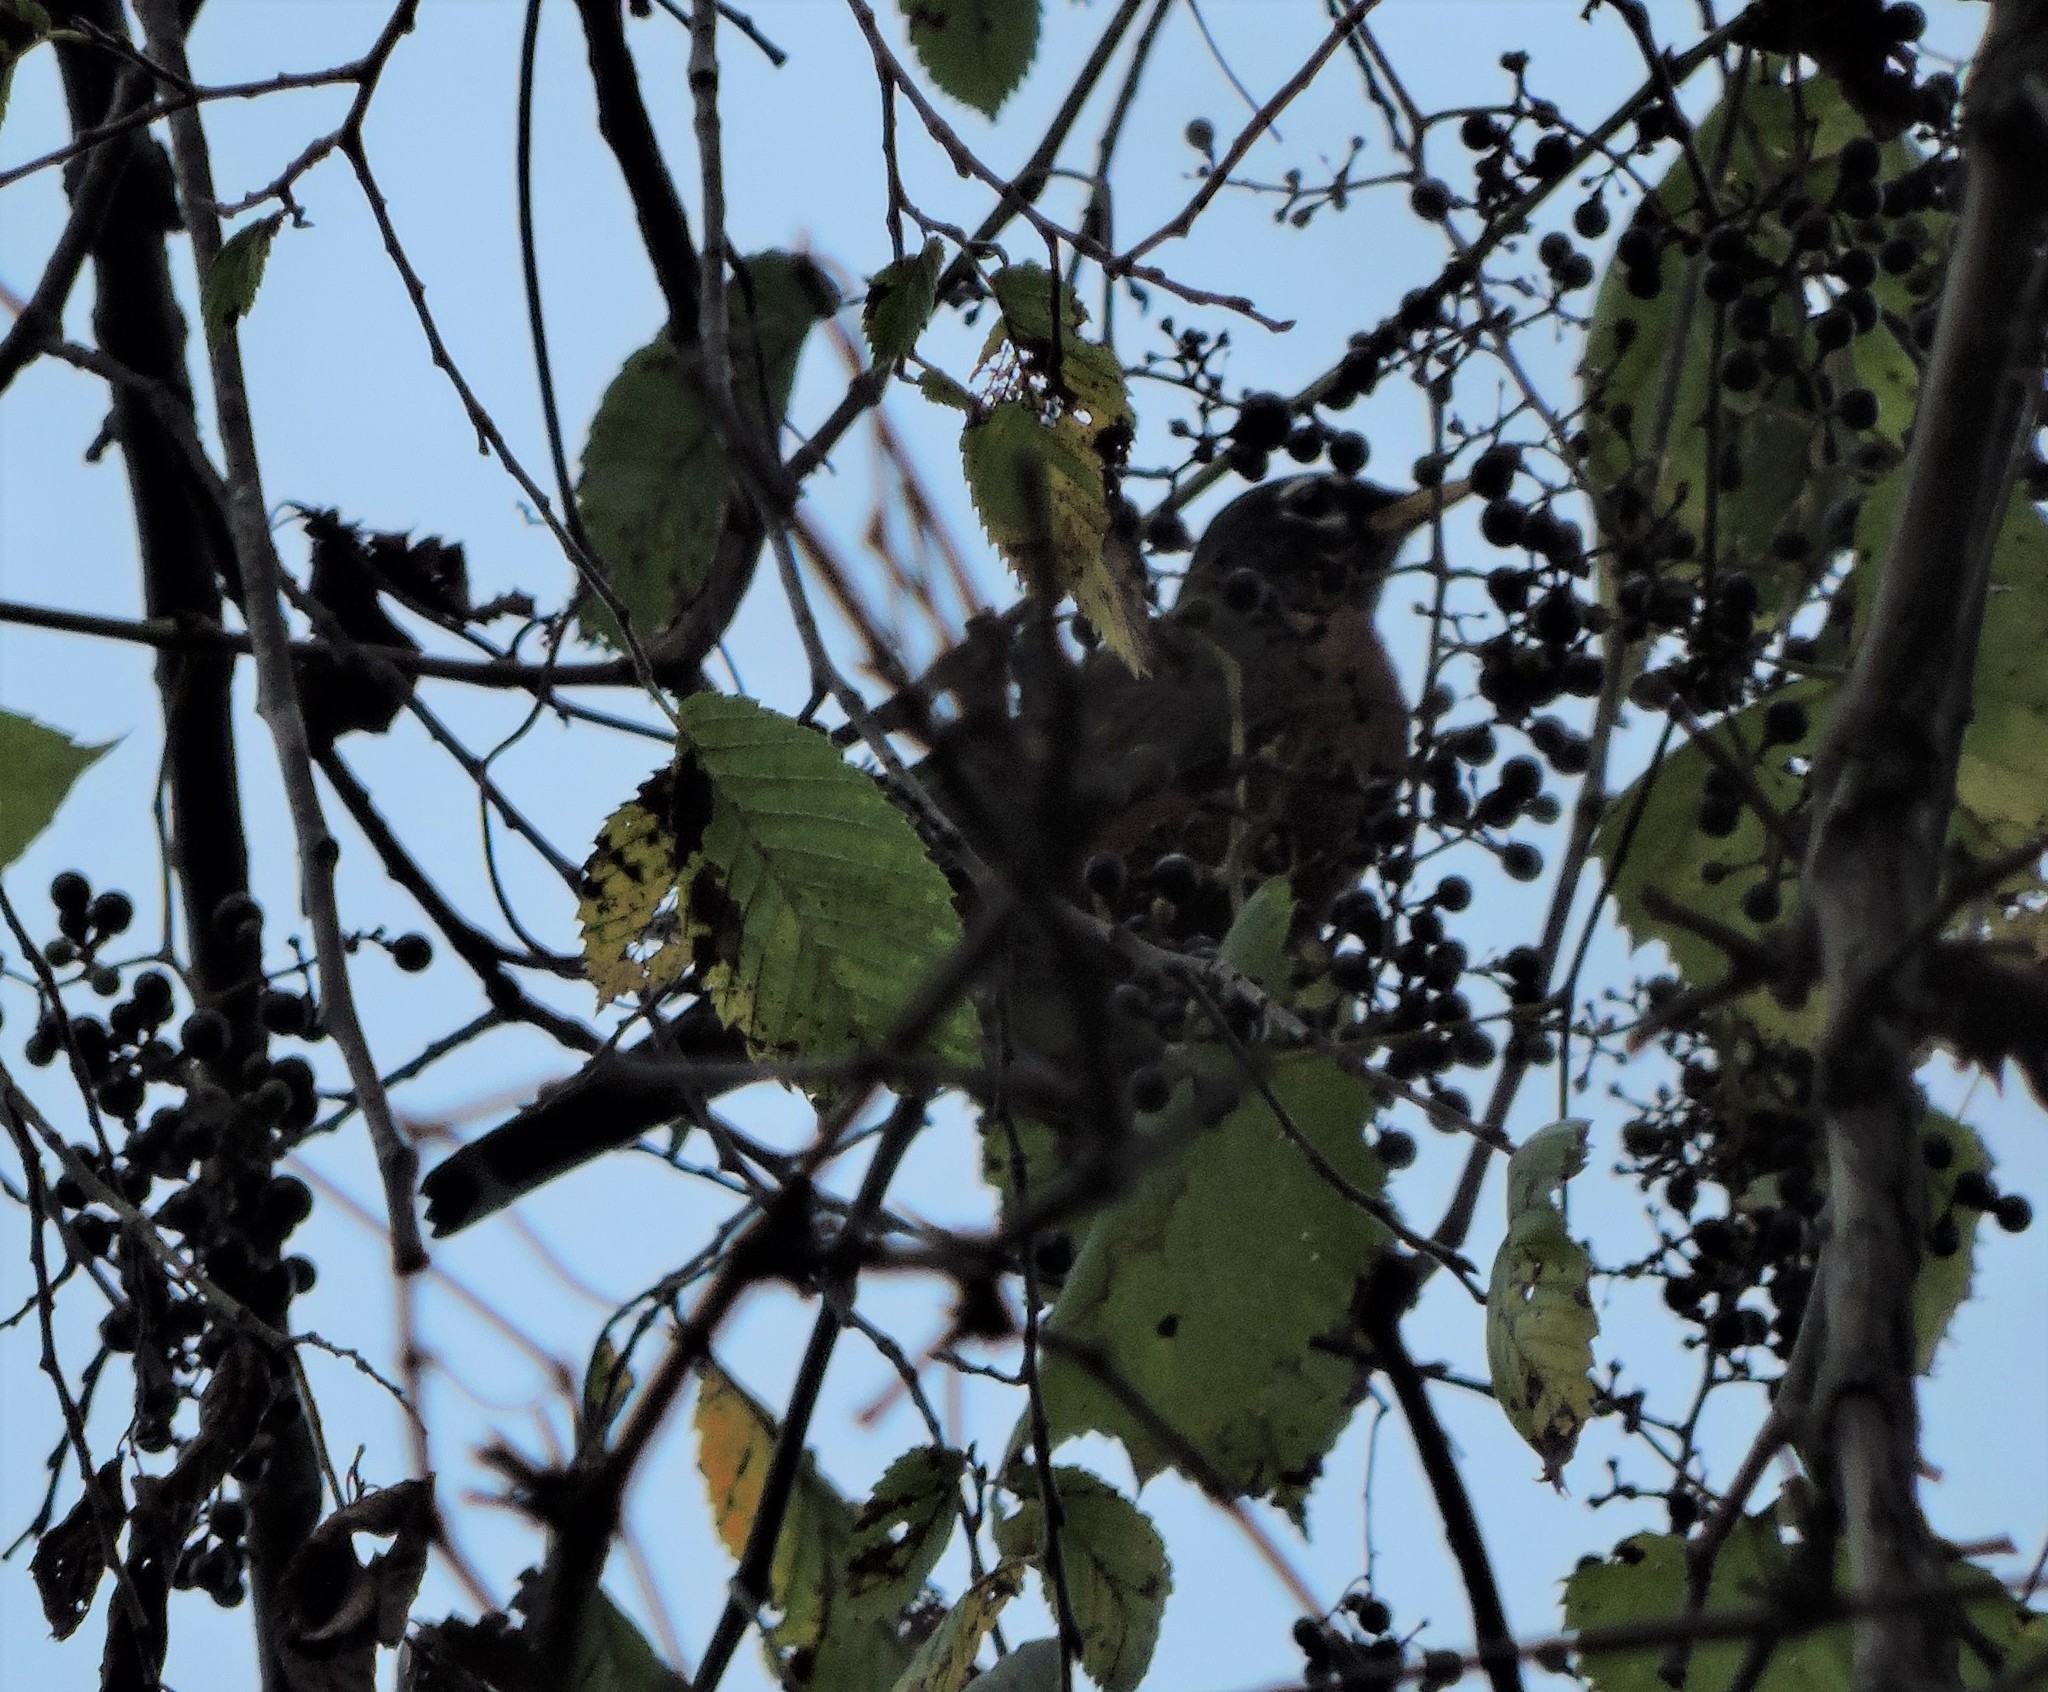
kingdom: Animalia
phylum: Chordata
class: Aves
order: Passeriformes
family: Turdidae
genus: Turdus
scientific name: Turdus migratorius
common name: American robin
